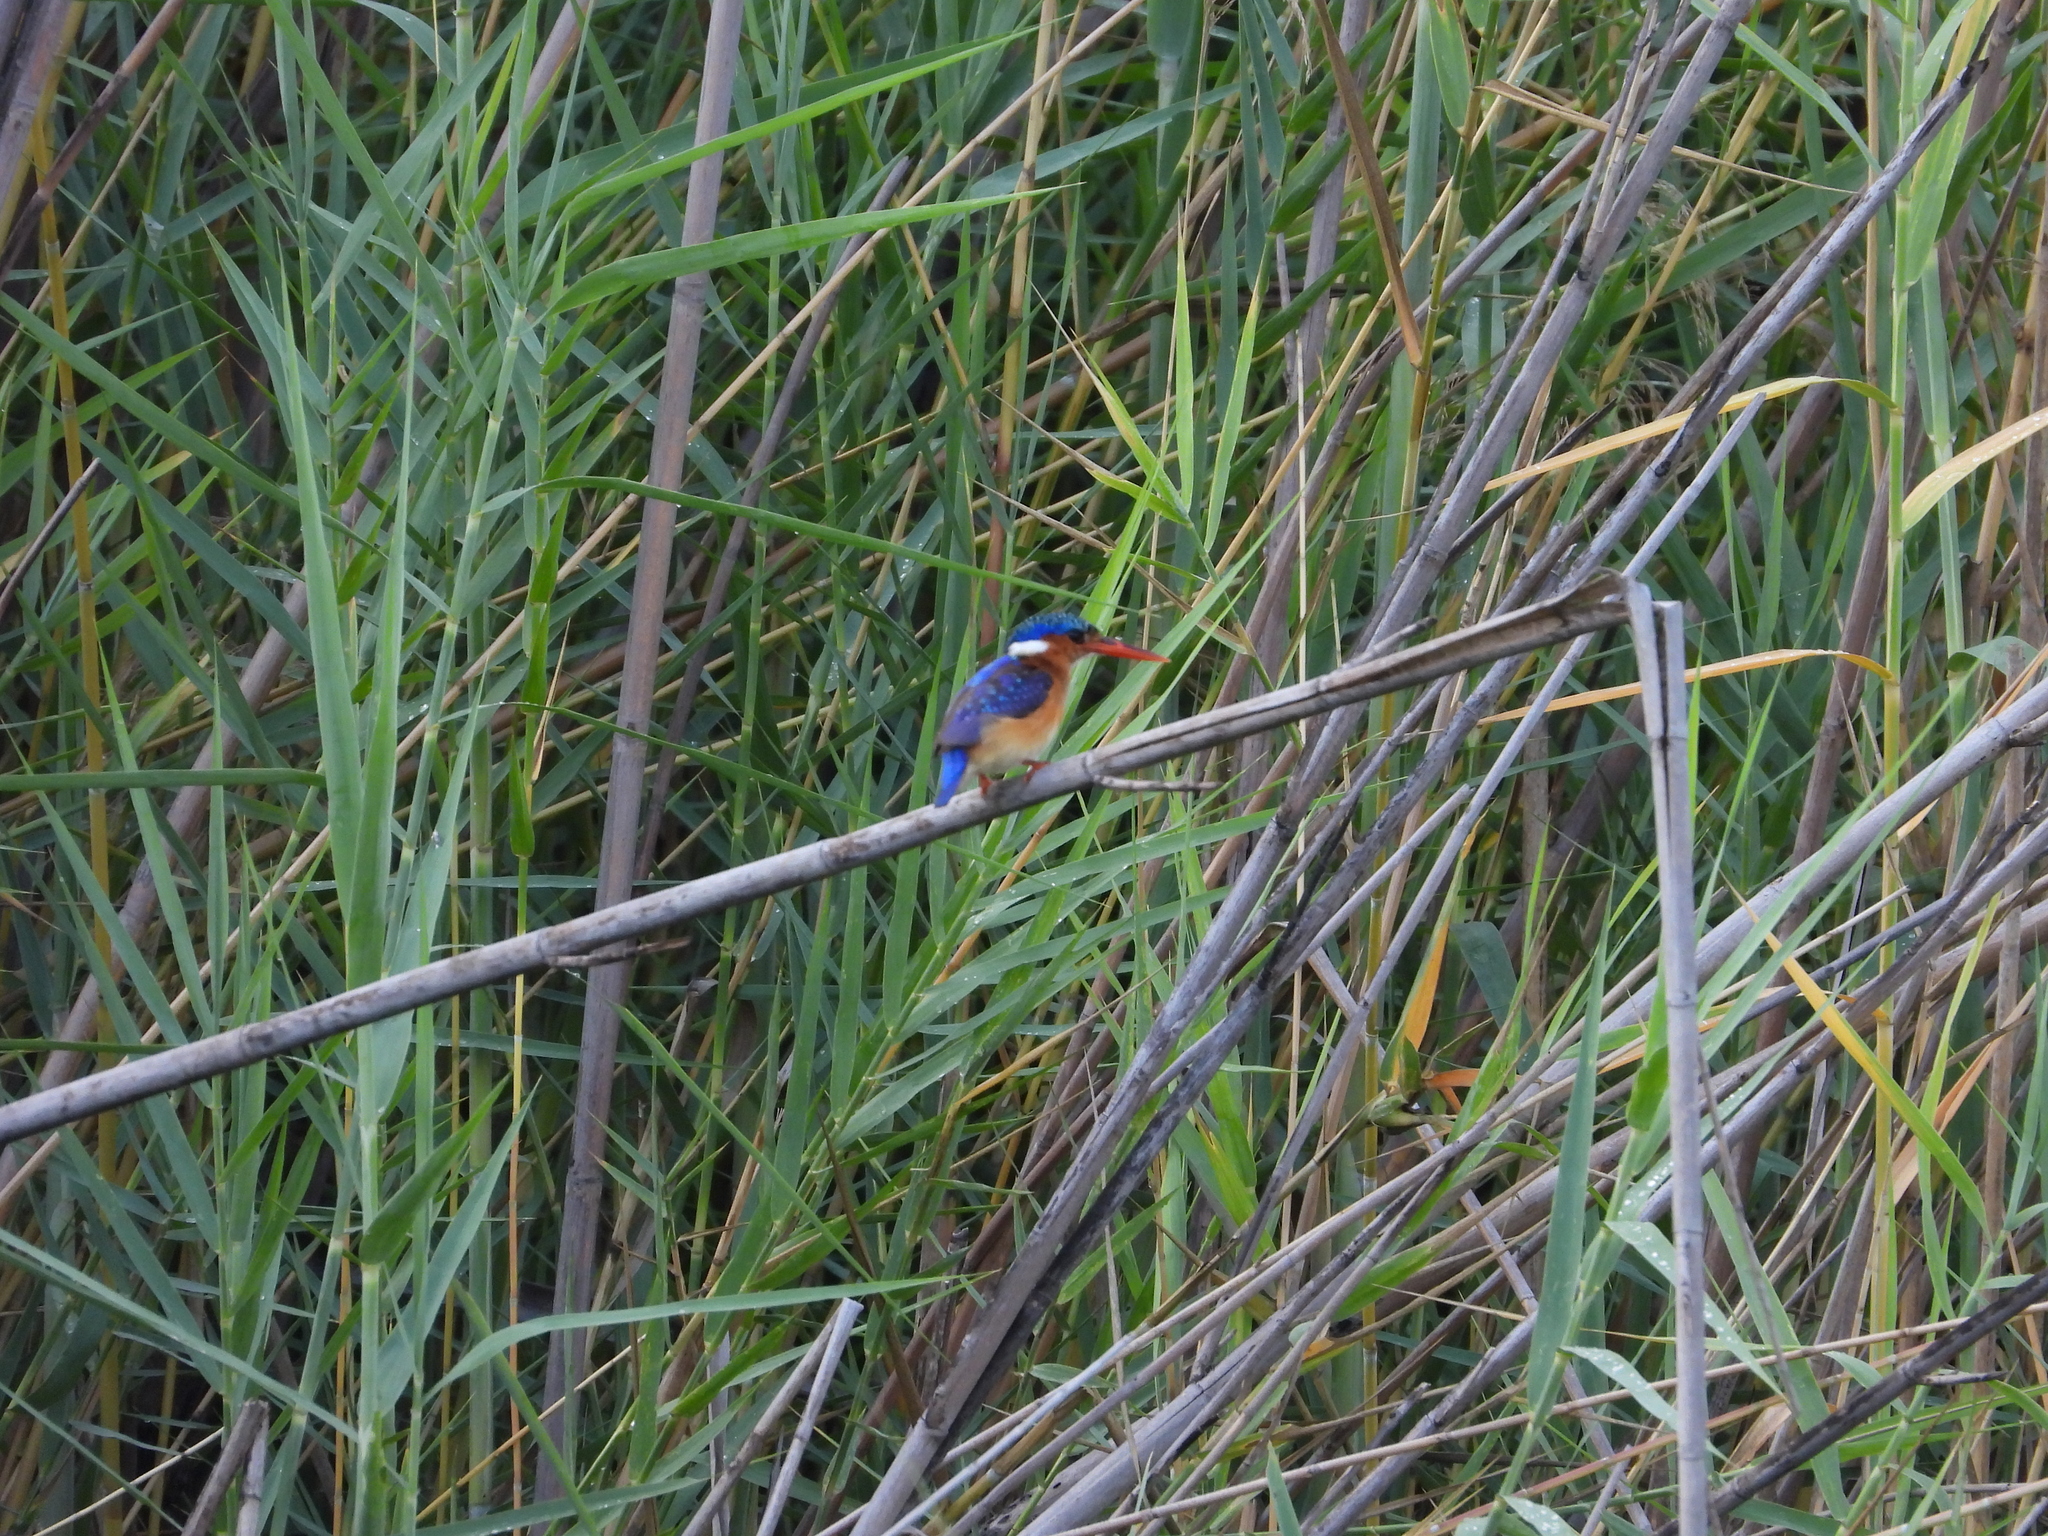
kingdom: Animalia
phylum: Chordata
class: Aves
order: Coraciiformes
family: Alcedinidae
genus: Corythornis
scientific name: Corythornis cristatus
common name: Malachite kingfisher
